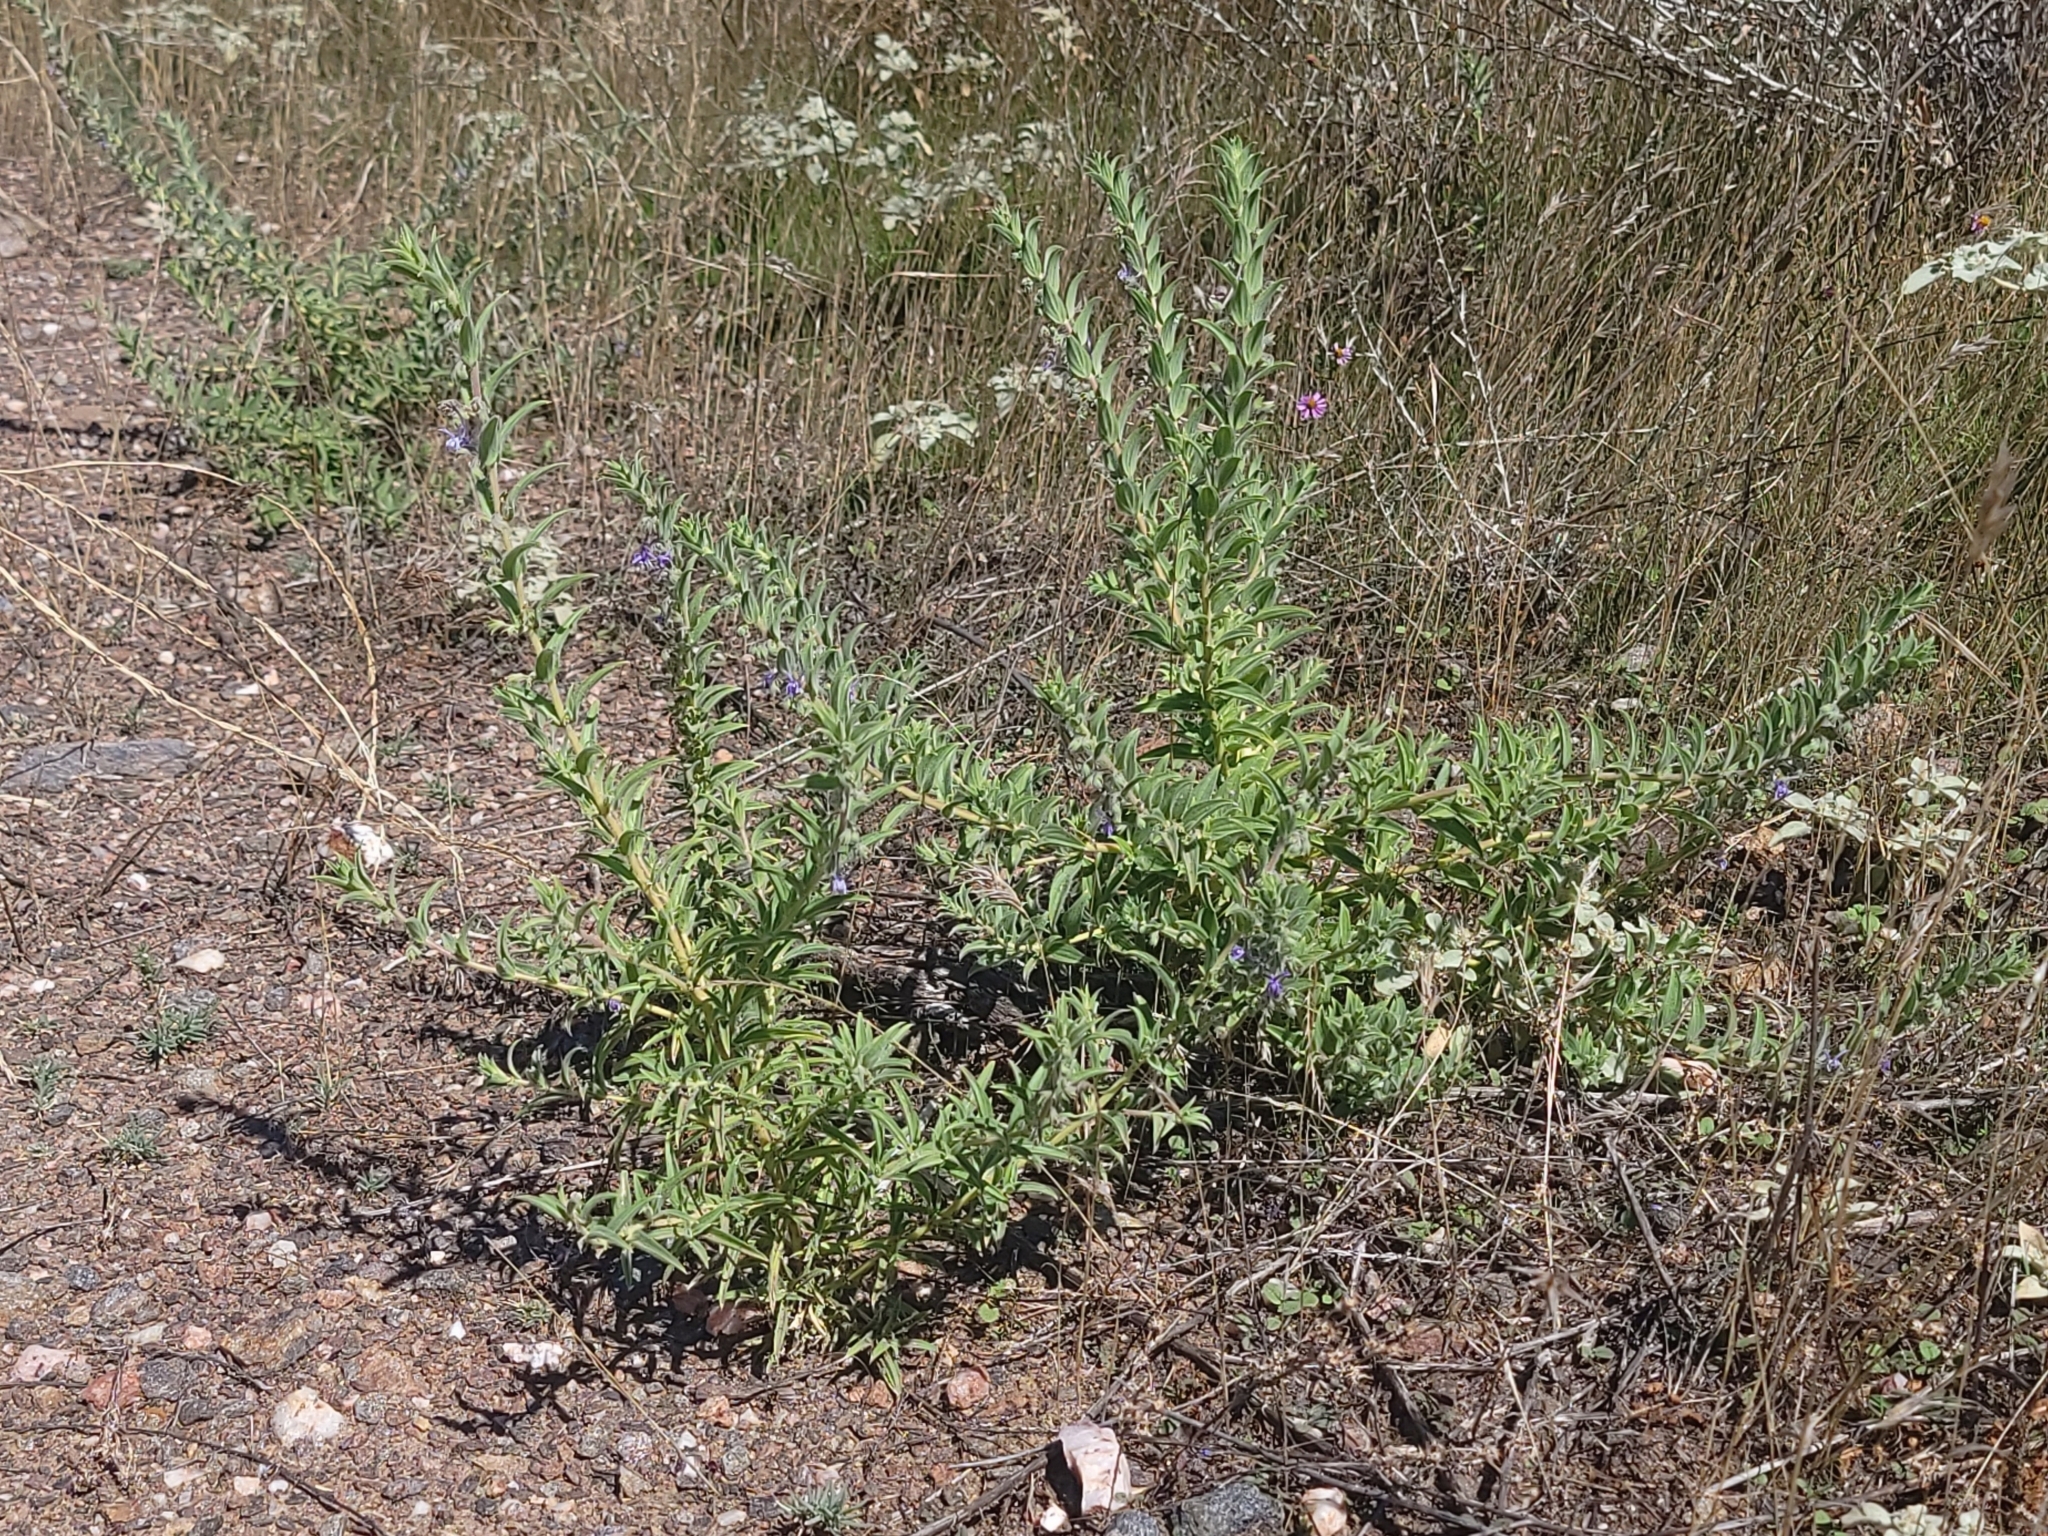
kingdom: Plantae
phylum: Tracheophyta
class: Magnoliopsida
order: Lamiales
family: Lamiaceae
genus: Trichostema
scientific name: Trichostema lanceolatum
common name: Vinegar-weed
